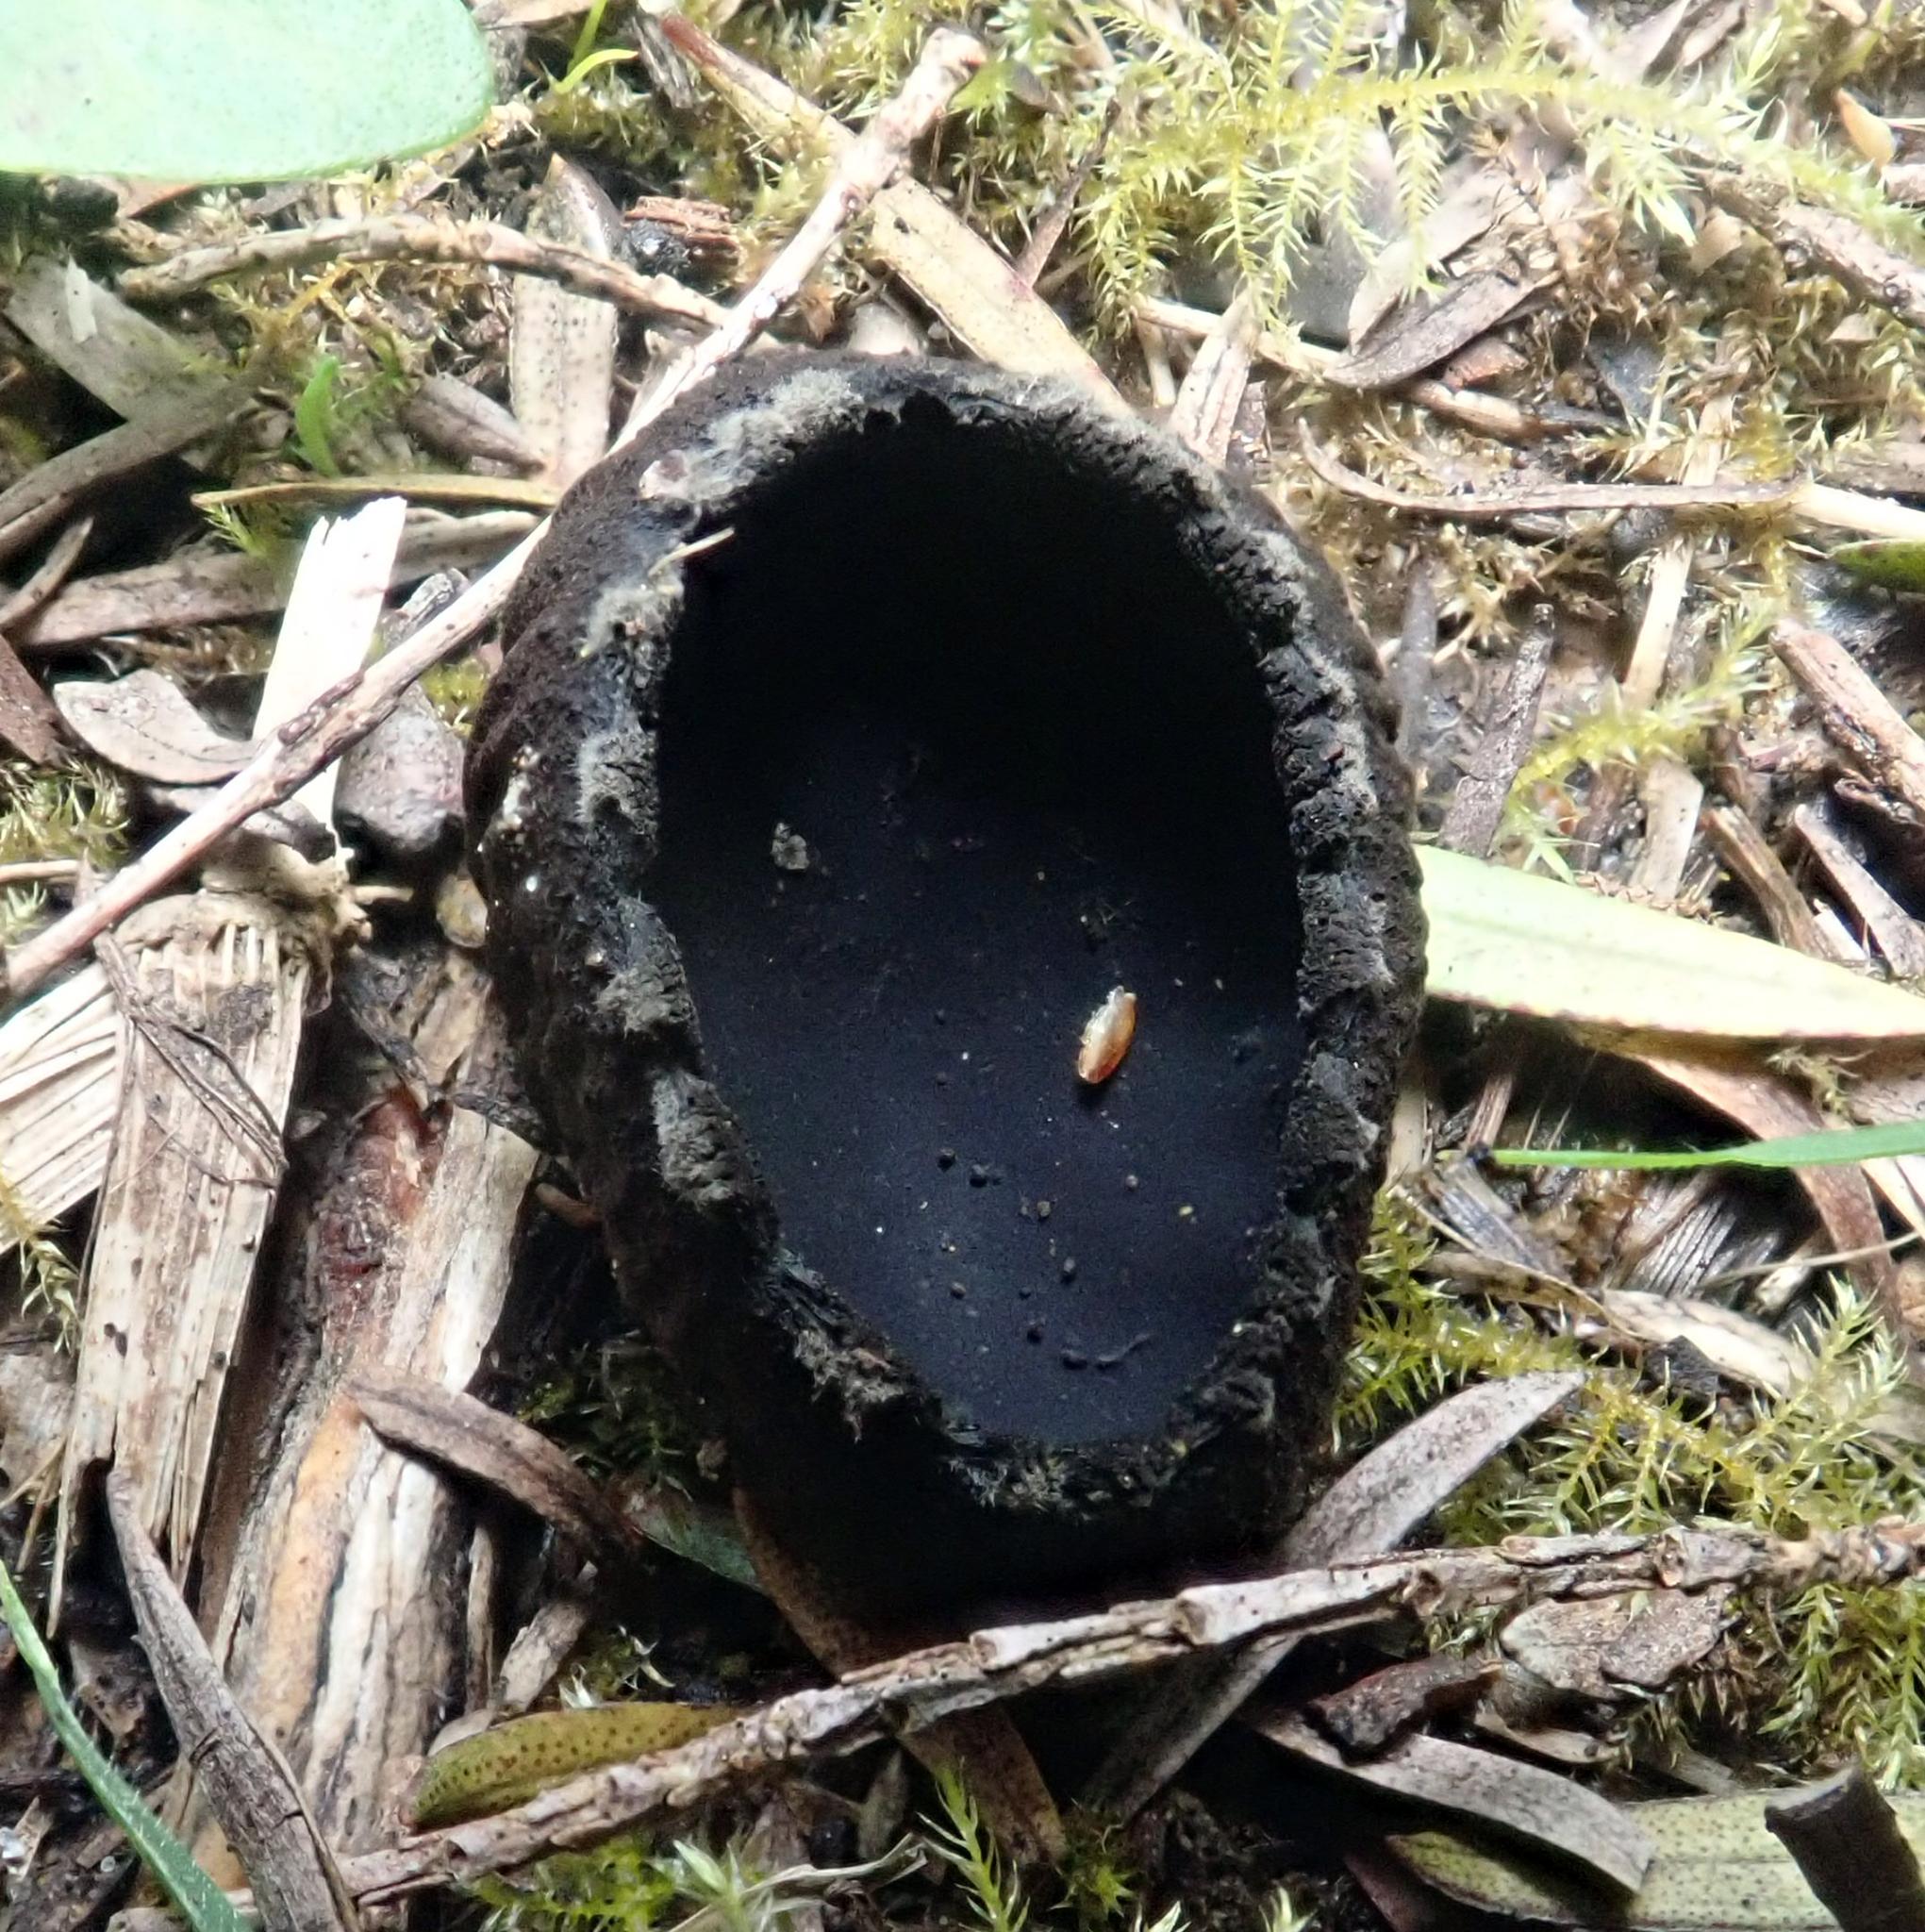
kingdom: Fungi
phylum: Ascomycota
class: Pezizomycetes
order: Pezizales
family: Sarcosomataceae
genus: Plectania
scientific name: Plectania rhytidia
